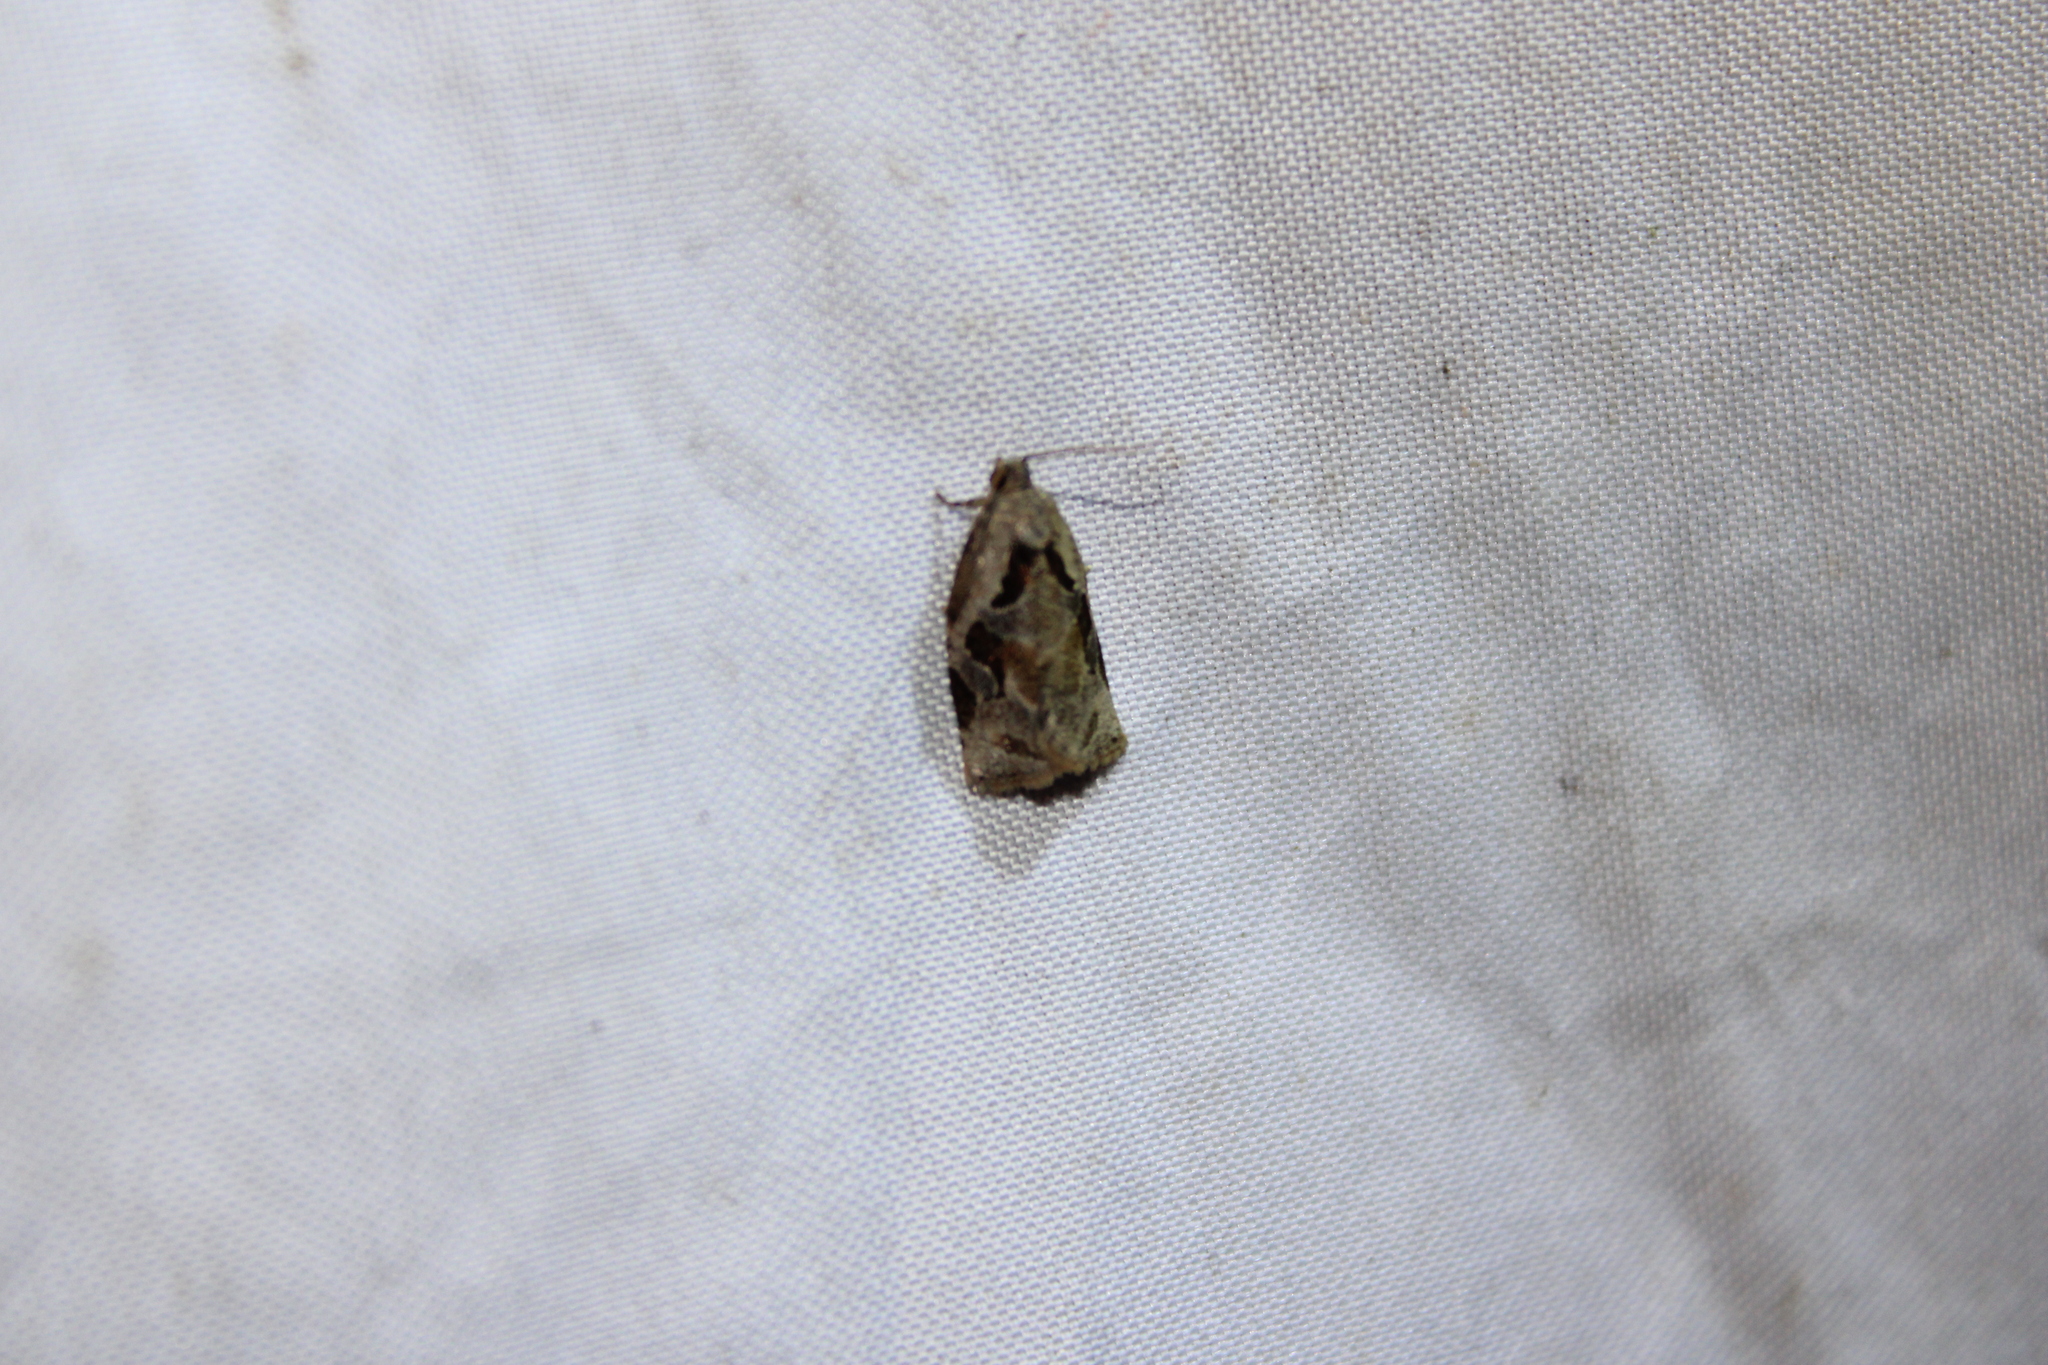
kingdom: Animalia
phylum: Arthropoda
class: Insecta
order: Lepidoptera
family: Tortricidae
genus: Archips
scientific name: Archips grisea
